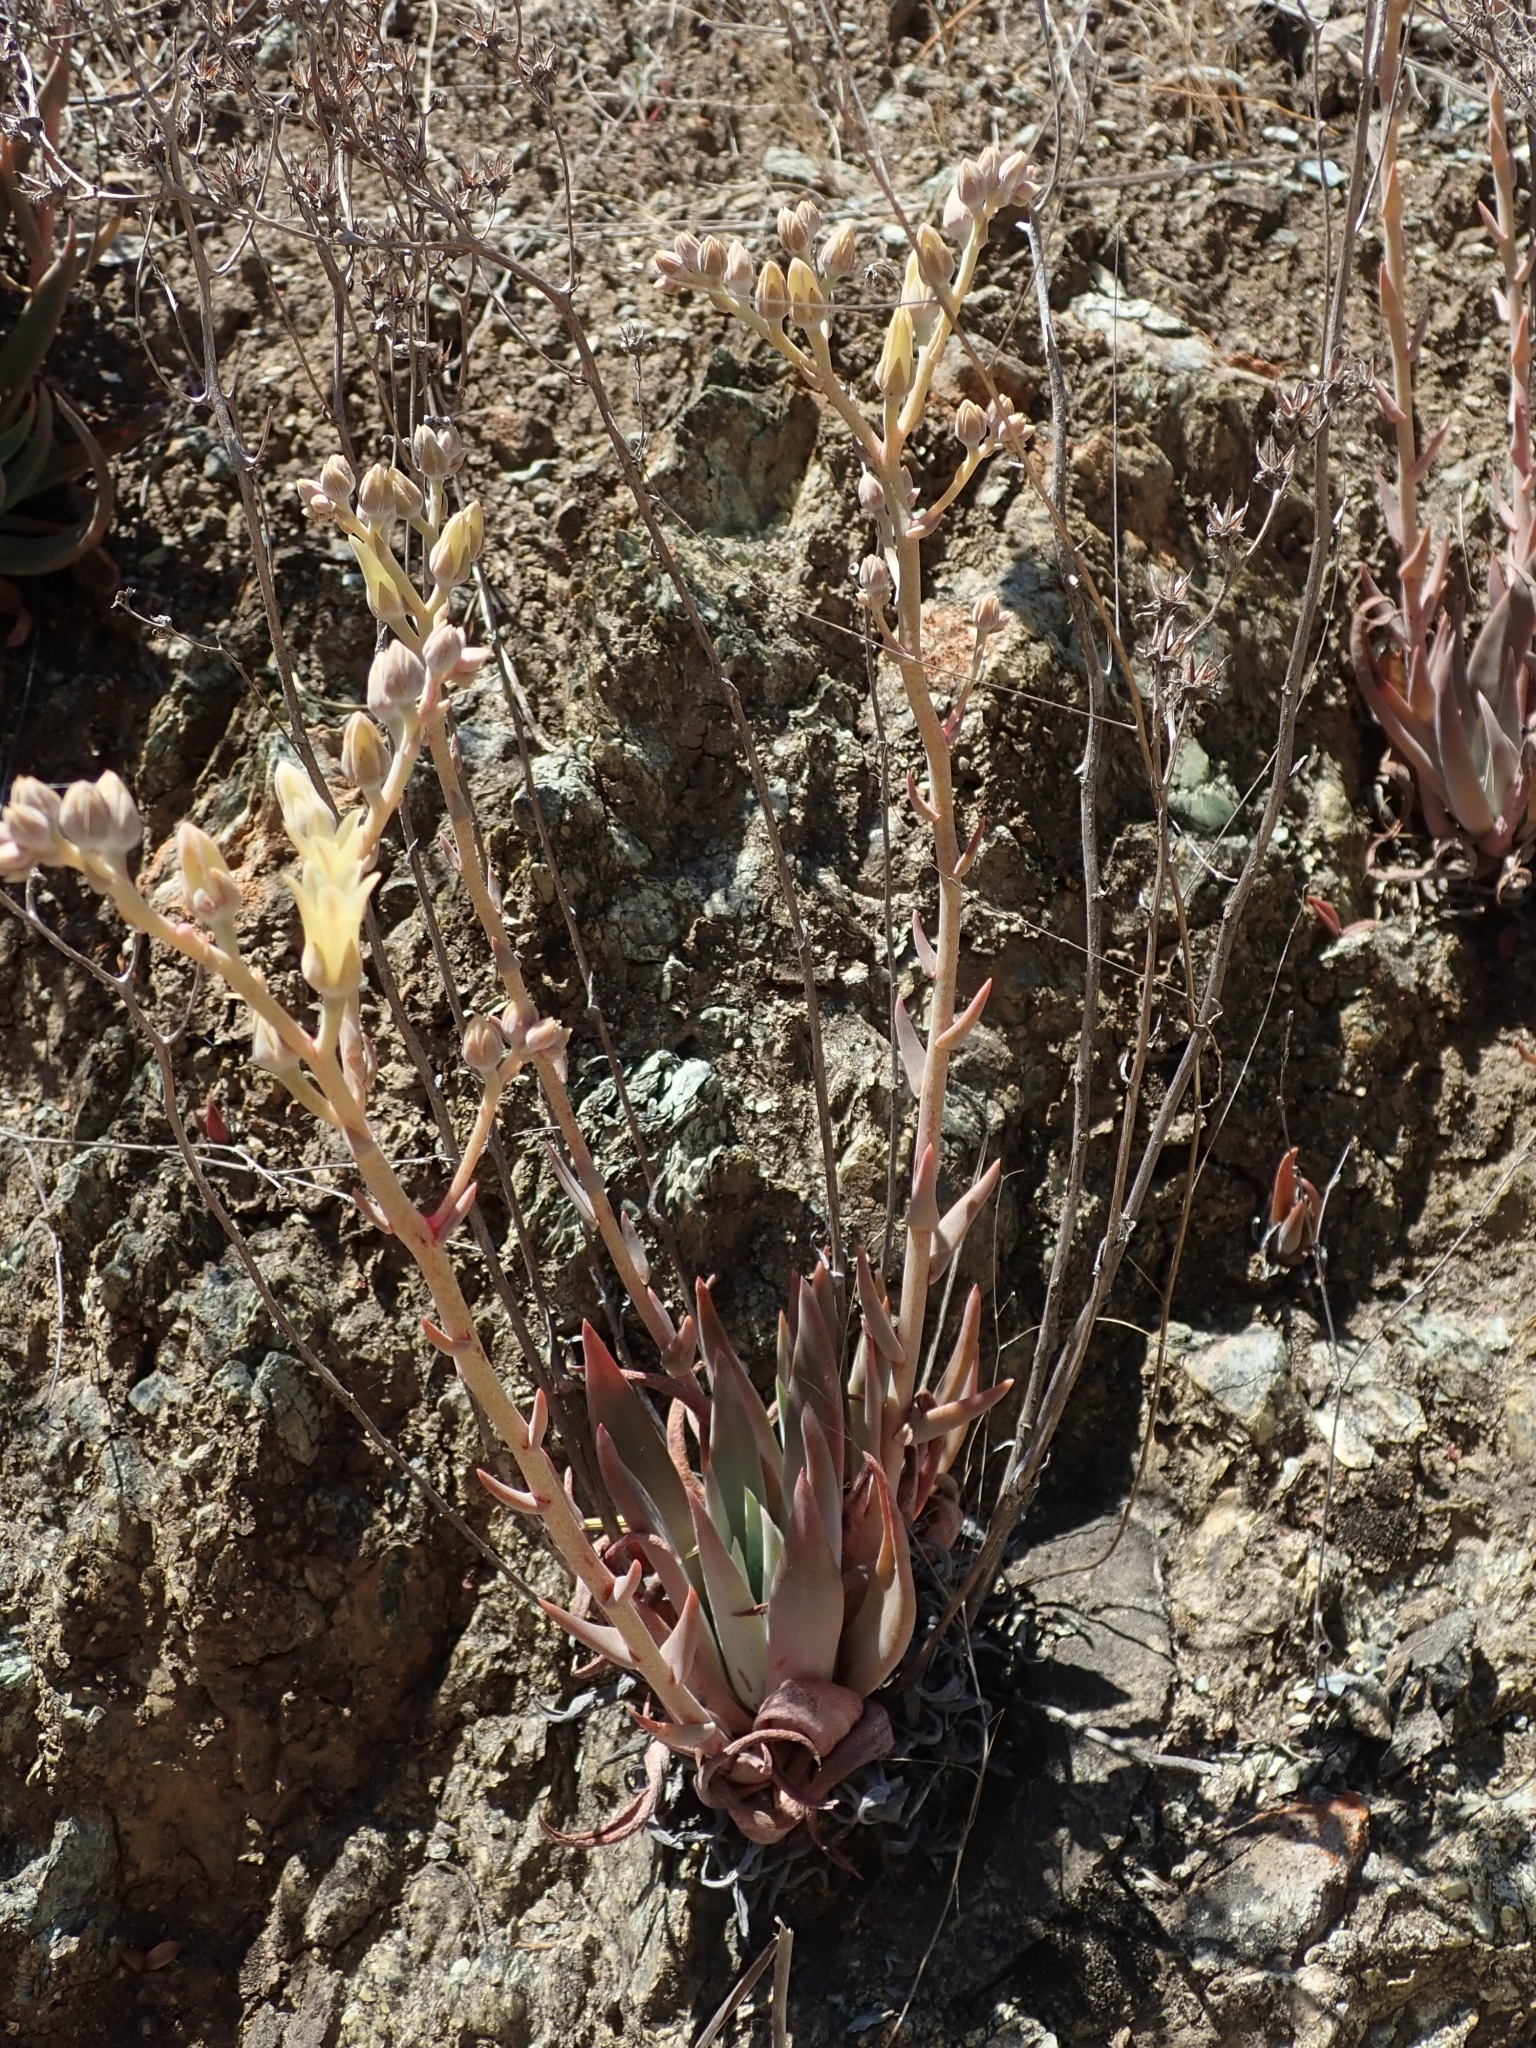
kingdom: Plantae
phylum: Tracheophyta
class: Magnoliopsida
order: Saxifragales
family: Crassulaceae
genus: Dudleya
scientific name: Dudleya abramsii
